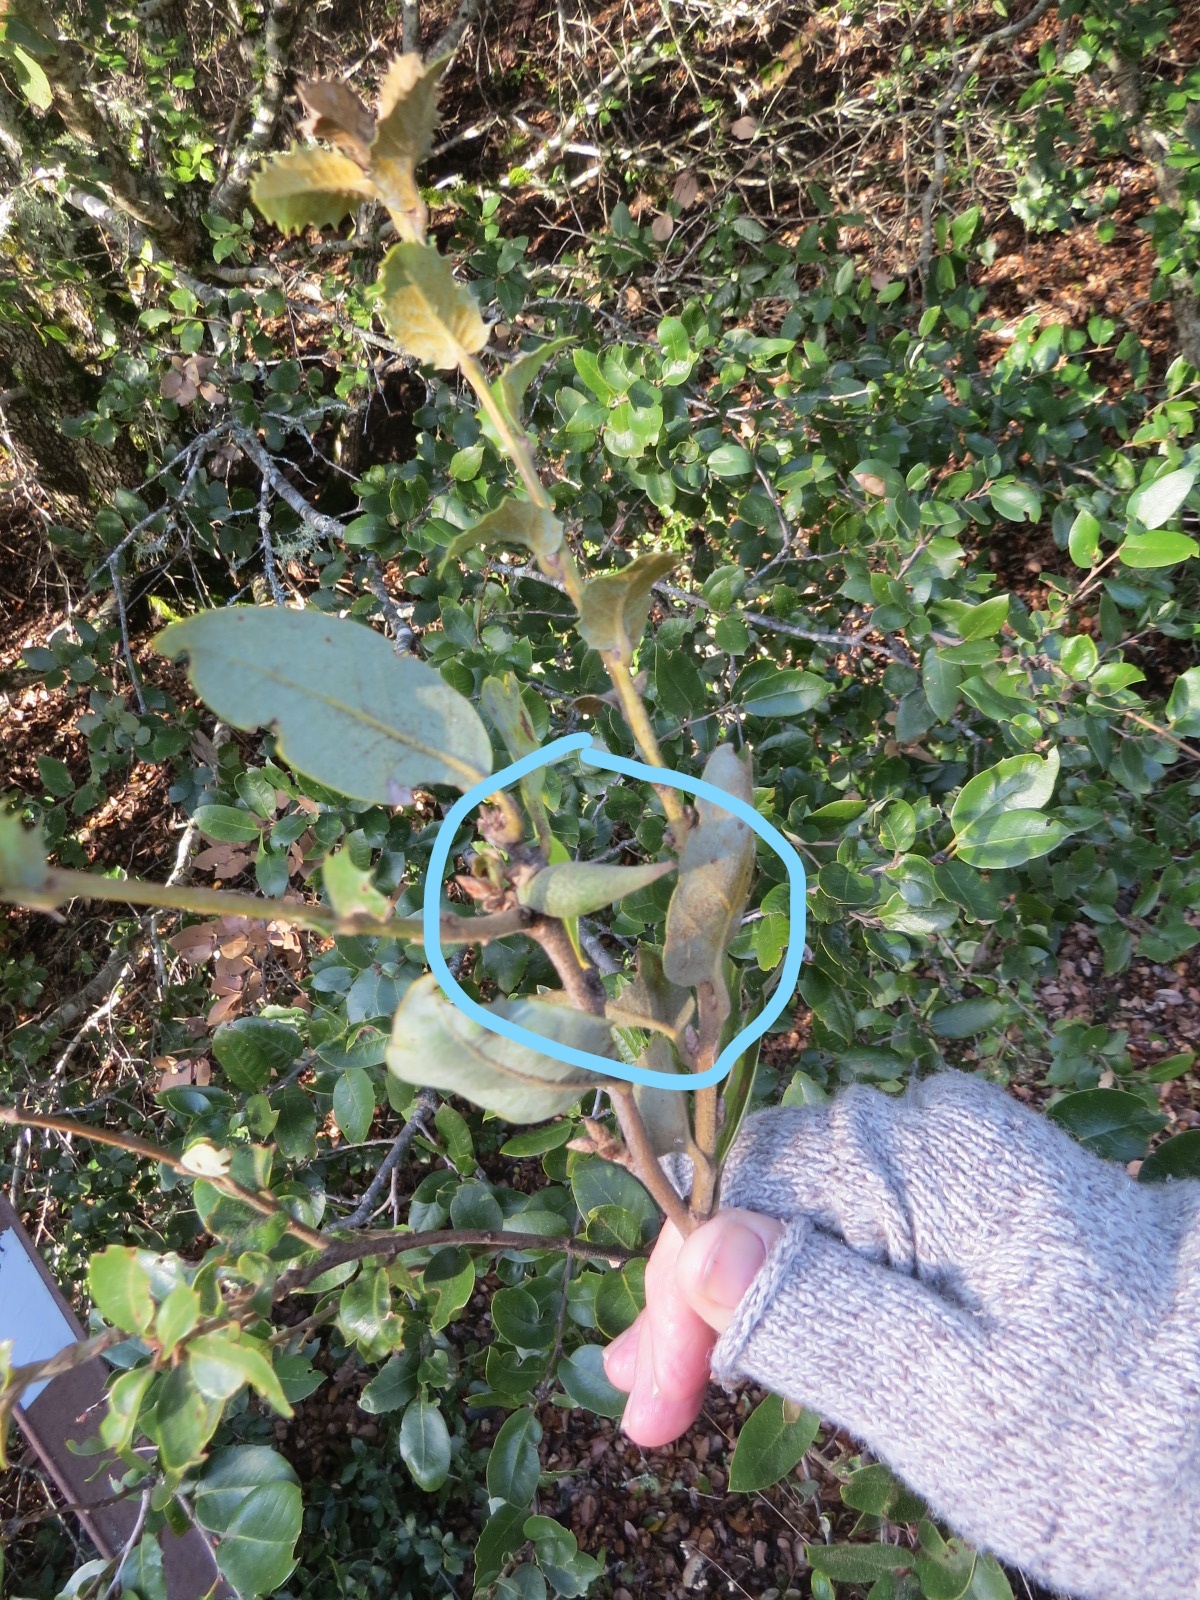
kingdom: Animalia
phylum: Arthropoda
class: Insecta
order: Hymenoptera
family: Cynipidae
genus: Heteroecus
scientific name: Heteroecus pacificus
